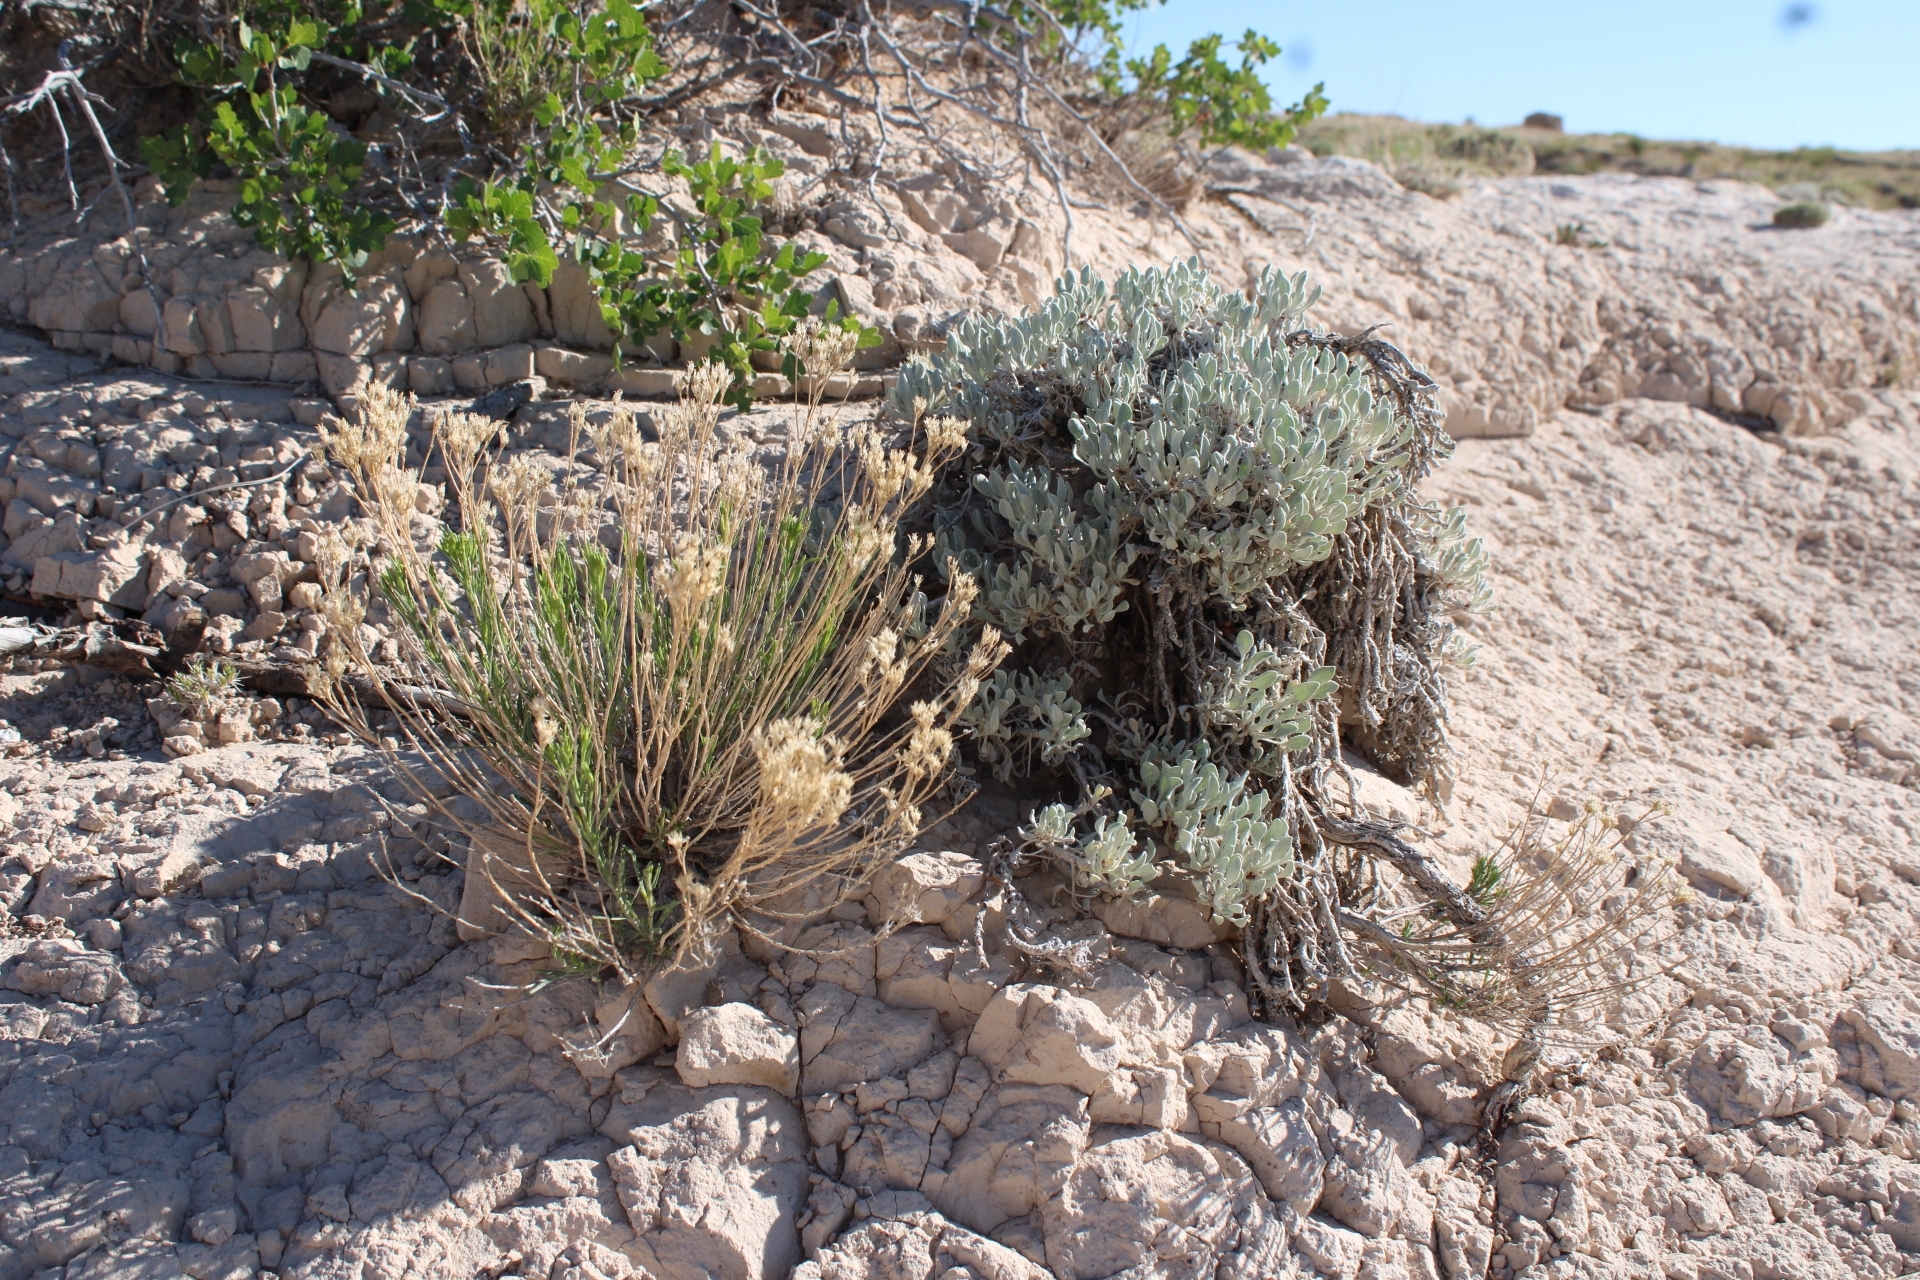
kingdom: Plantae
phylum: Tracheophyta
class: Magnoliopsida
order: Asterales
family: Asteraceae
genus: Gutierrezia
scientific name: Gutierrezia sarothrae
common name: Broom snakeweed
